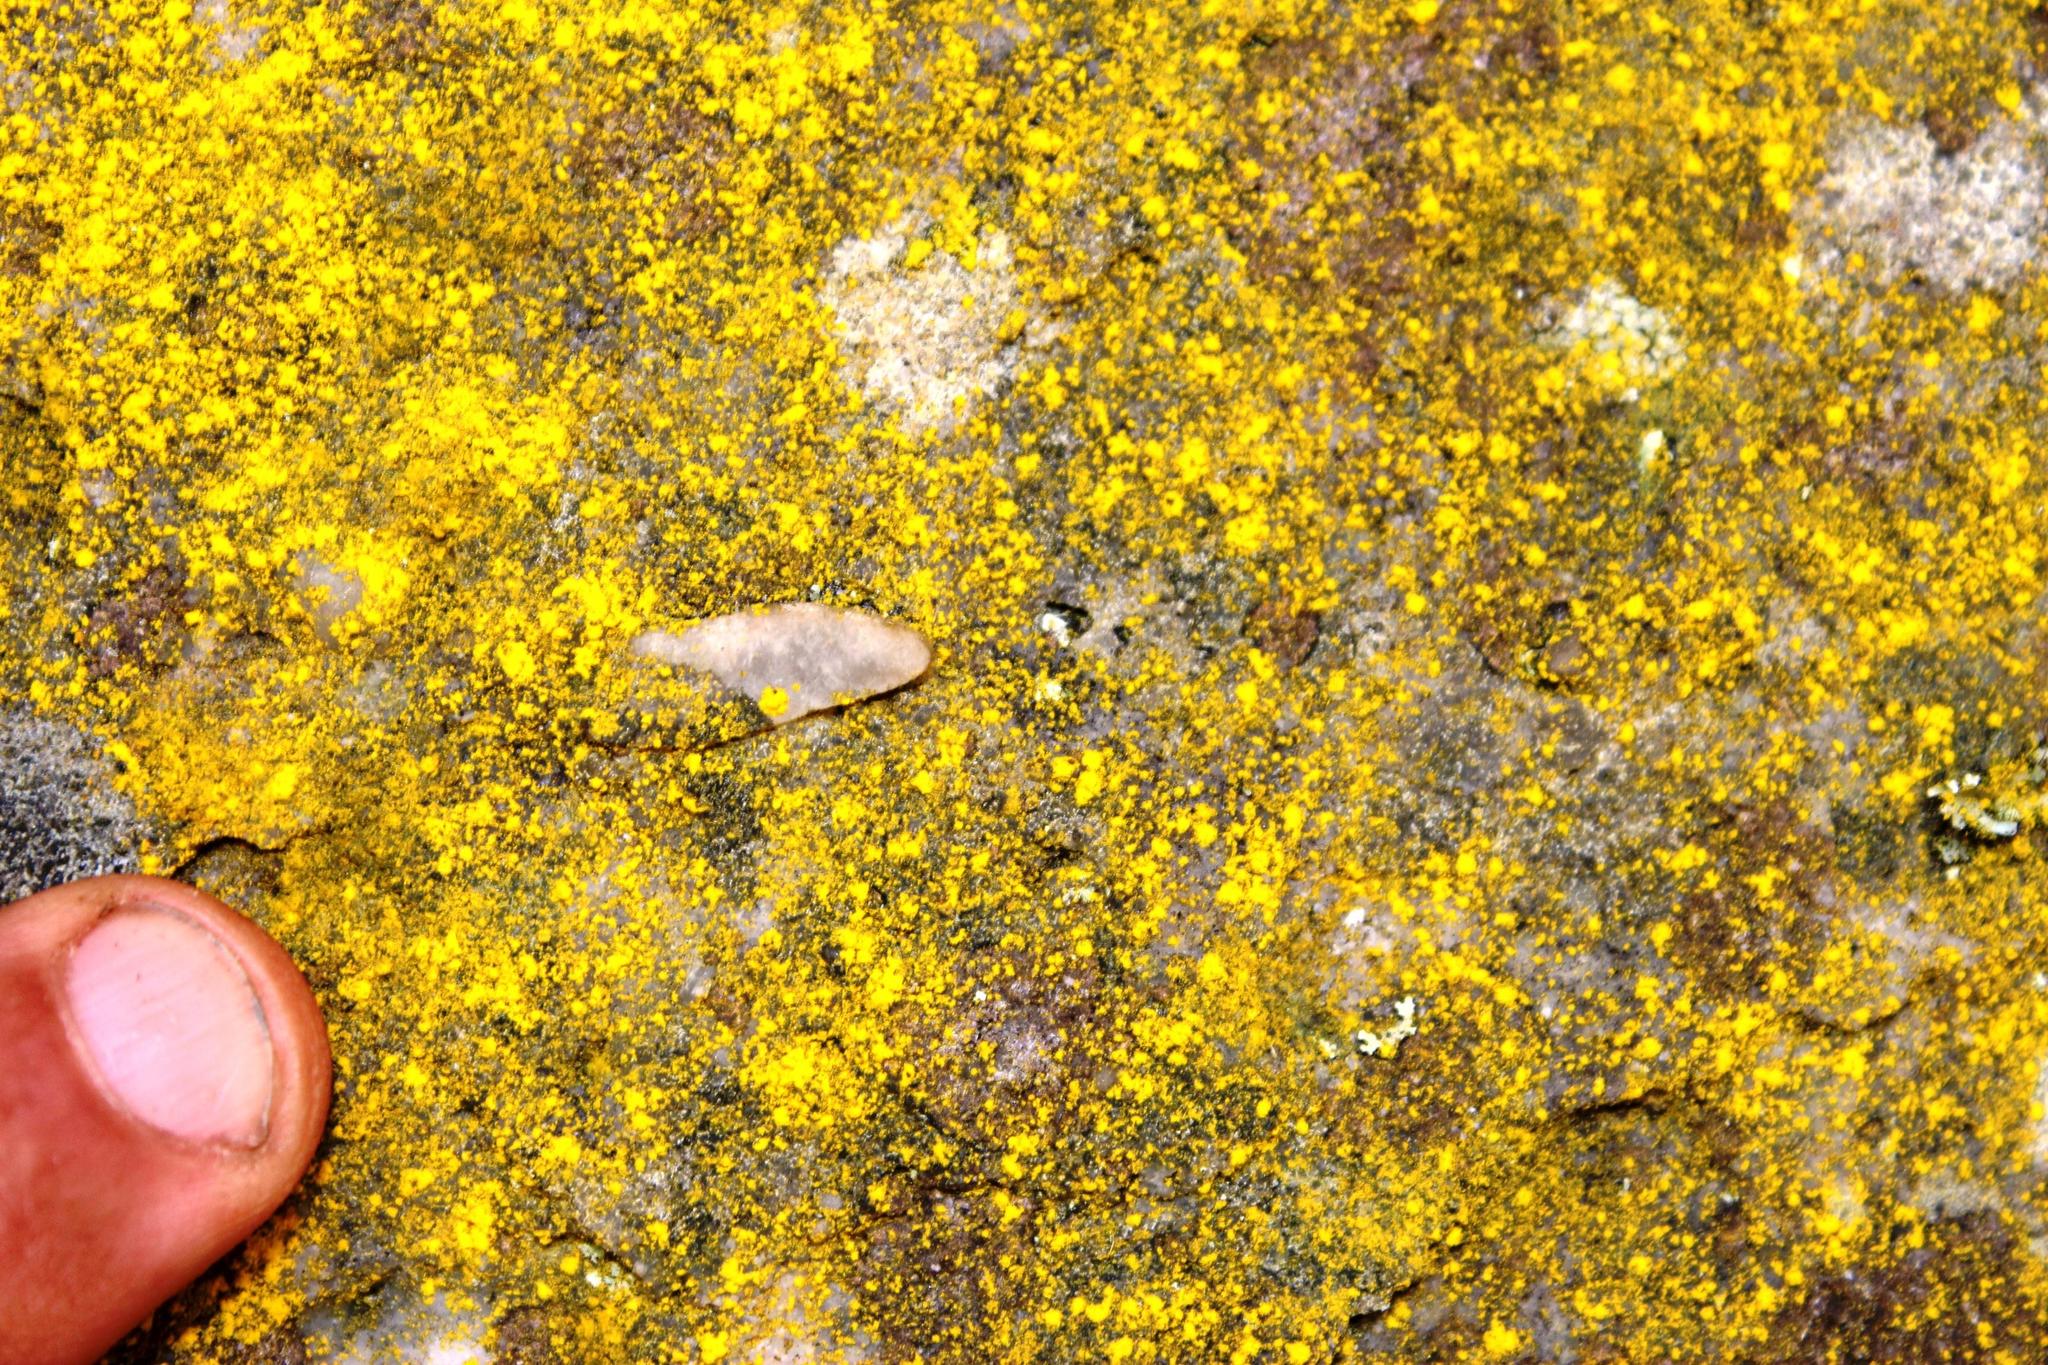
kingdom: Fungi
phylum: Ascomycota
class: Arthoniomycetes
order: Arthoniales
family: Chrysotrichaceae
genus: Chrysothrix
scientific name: Chrysothrix candelaris
